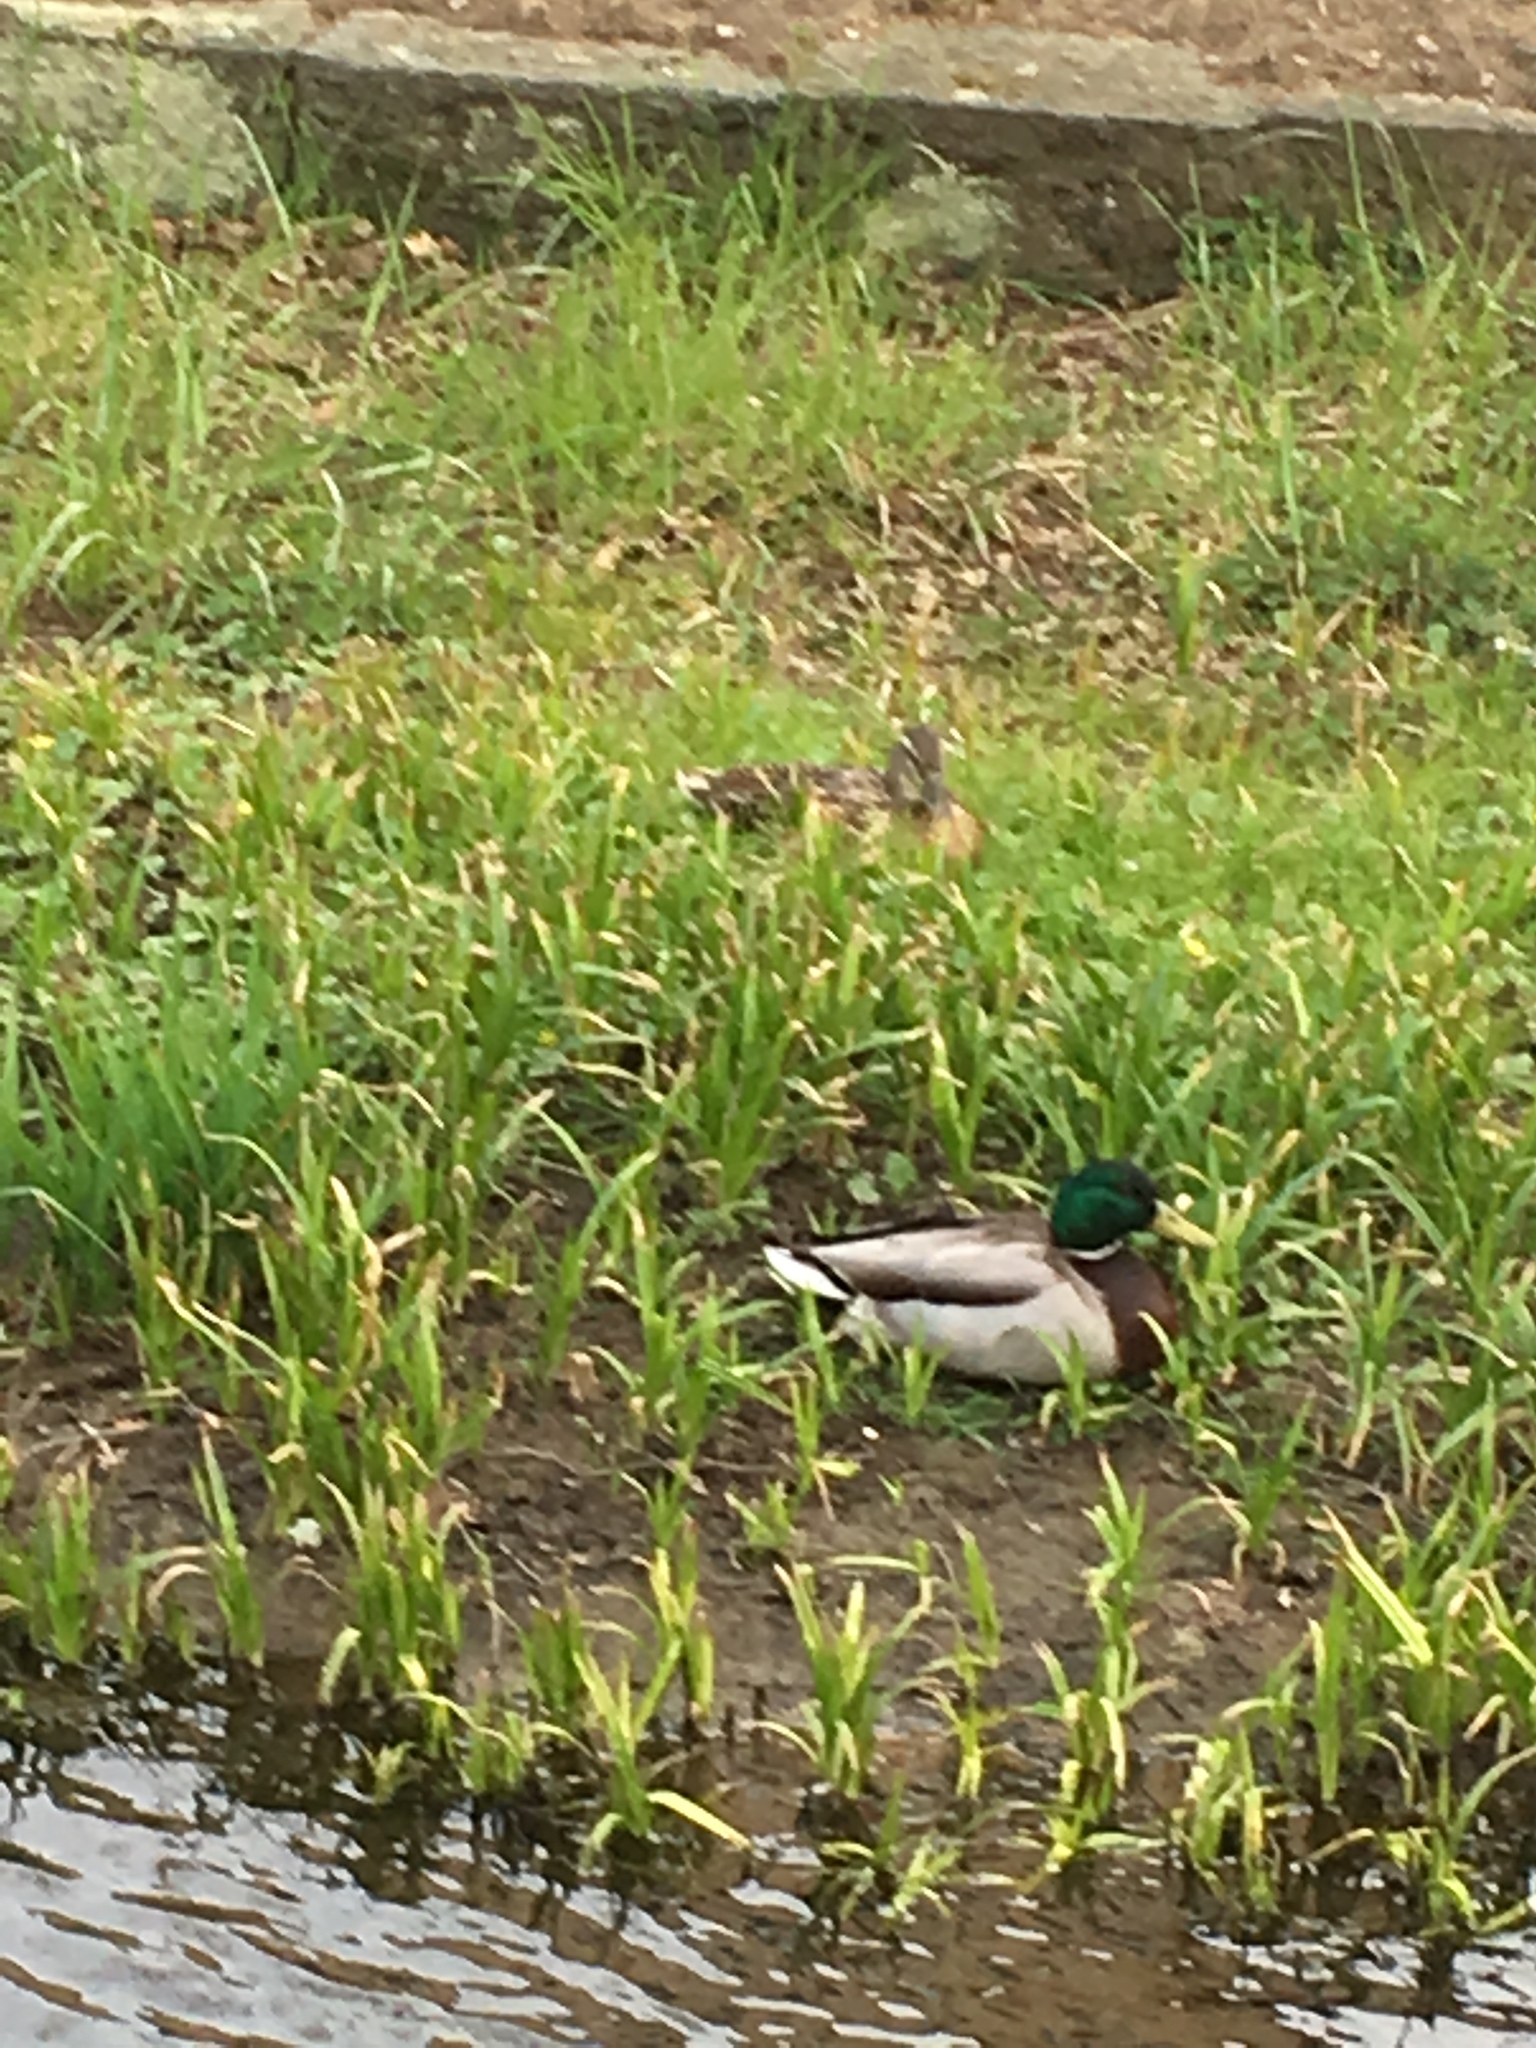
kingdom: Animalia
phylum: Chordata
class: Aves
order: Anseriformes
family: Anatidae
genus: Anas
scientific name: Anas platyrhynchos
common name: Mallard
